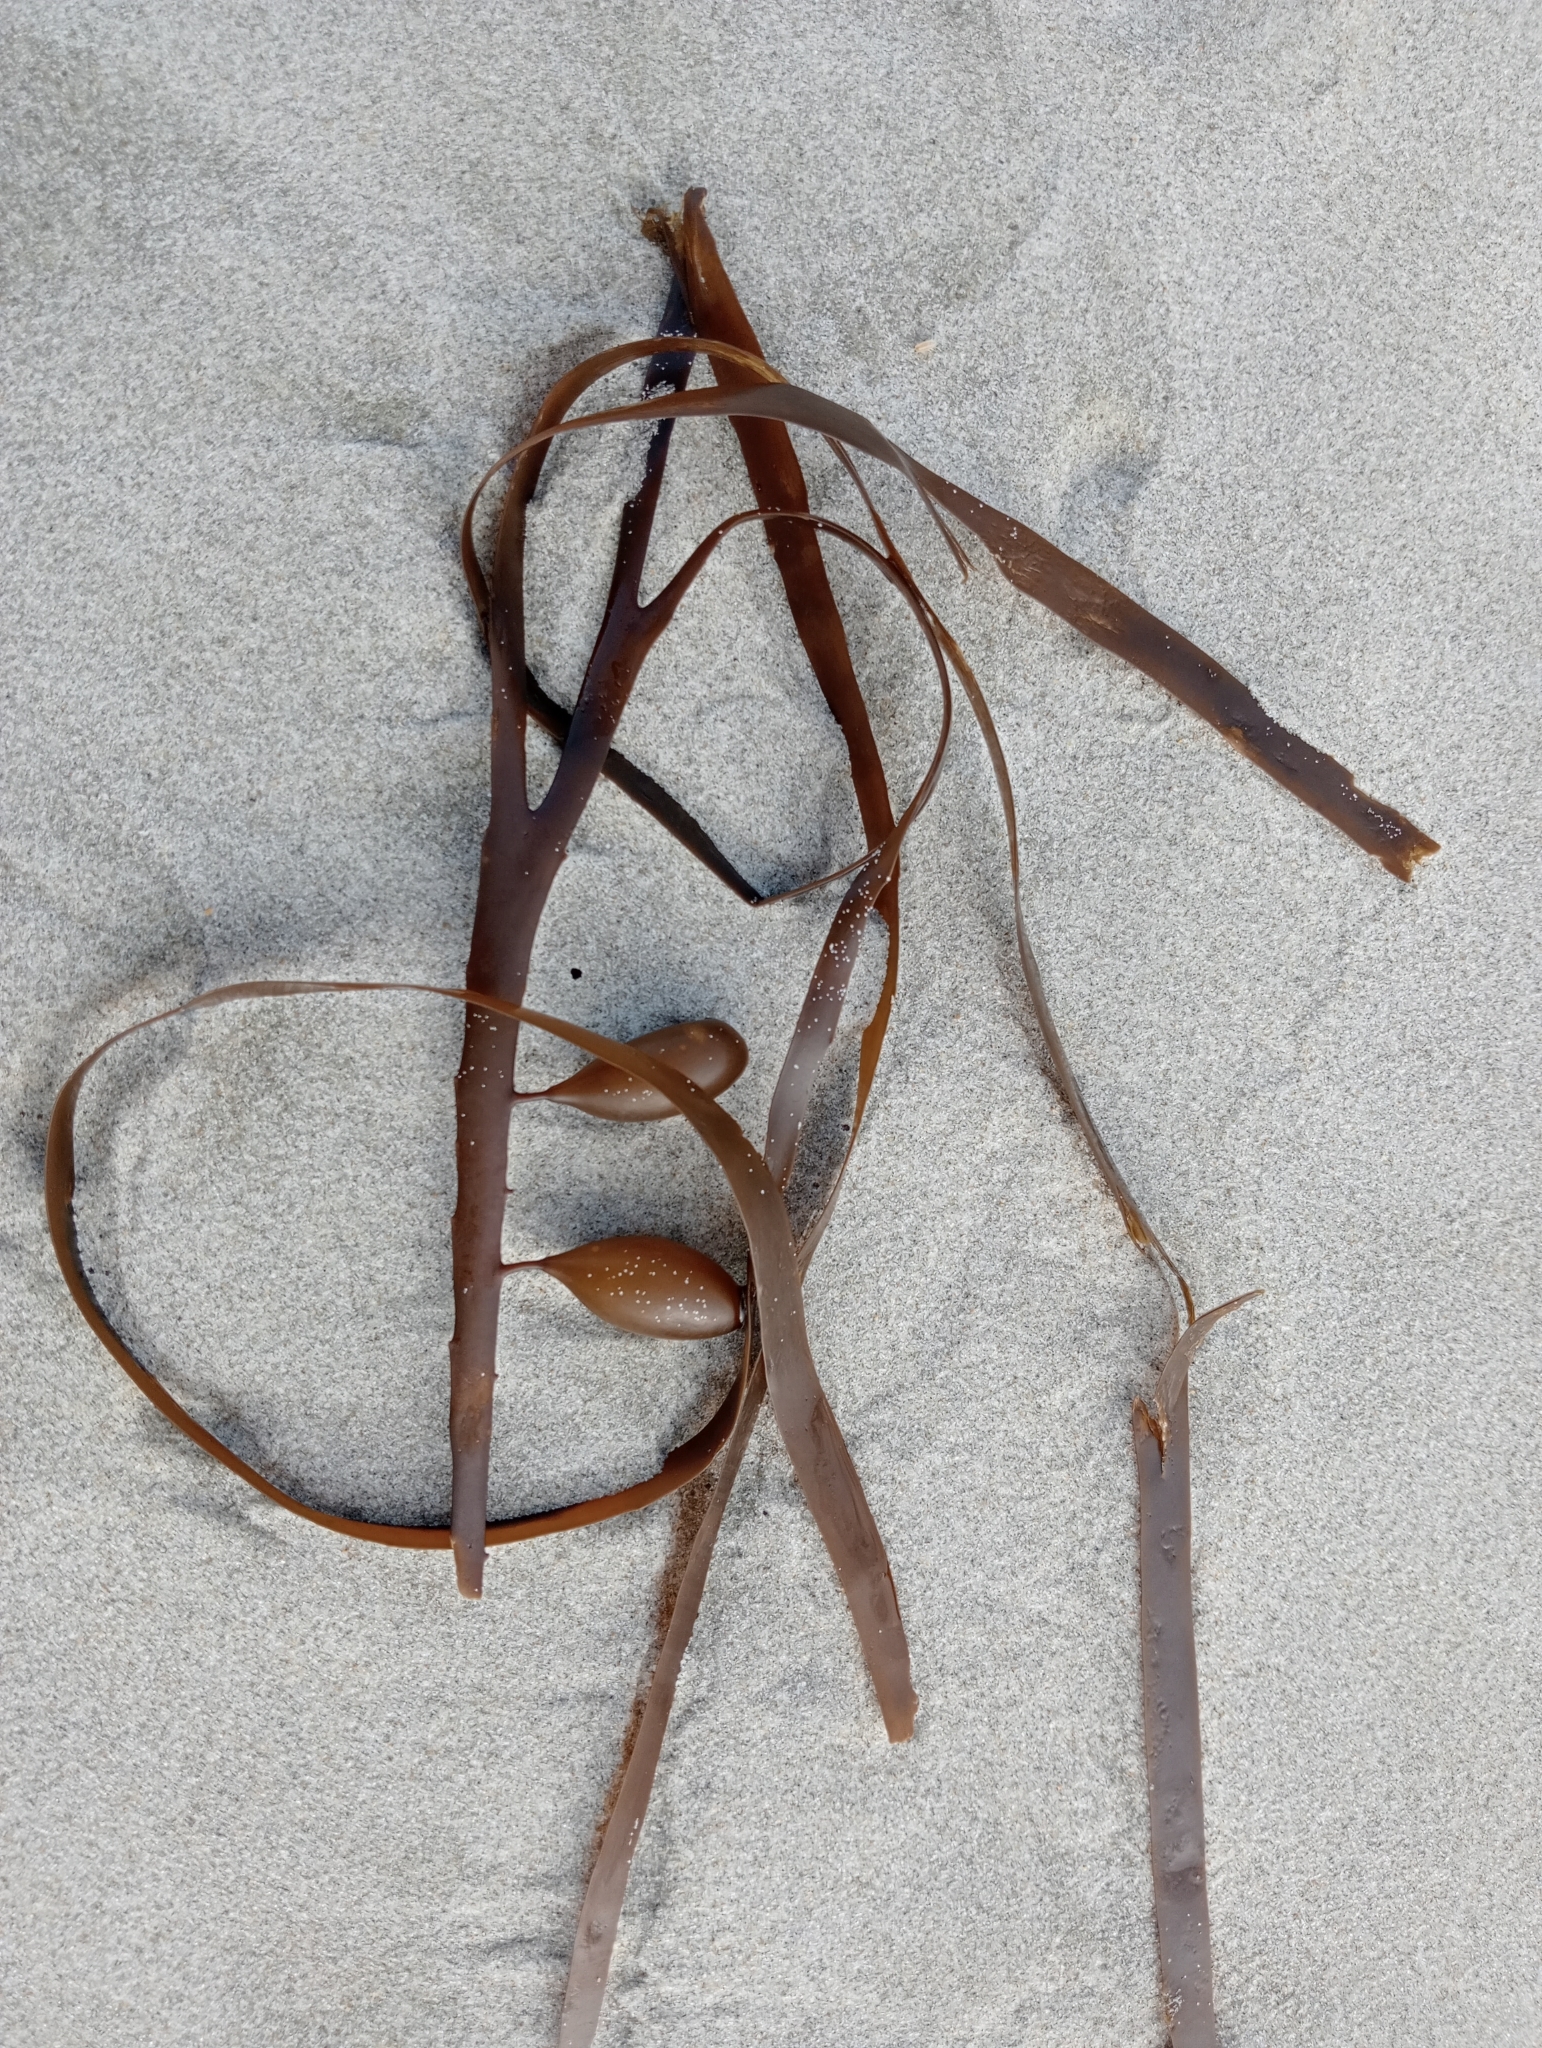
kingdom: Chromista
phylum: Ochrophyta
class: Phaeophyceae
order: Fucales
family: Seirococcaceae
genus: Marginariella
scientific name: Marginariella boryana
